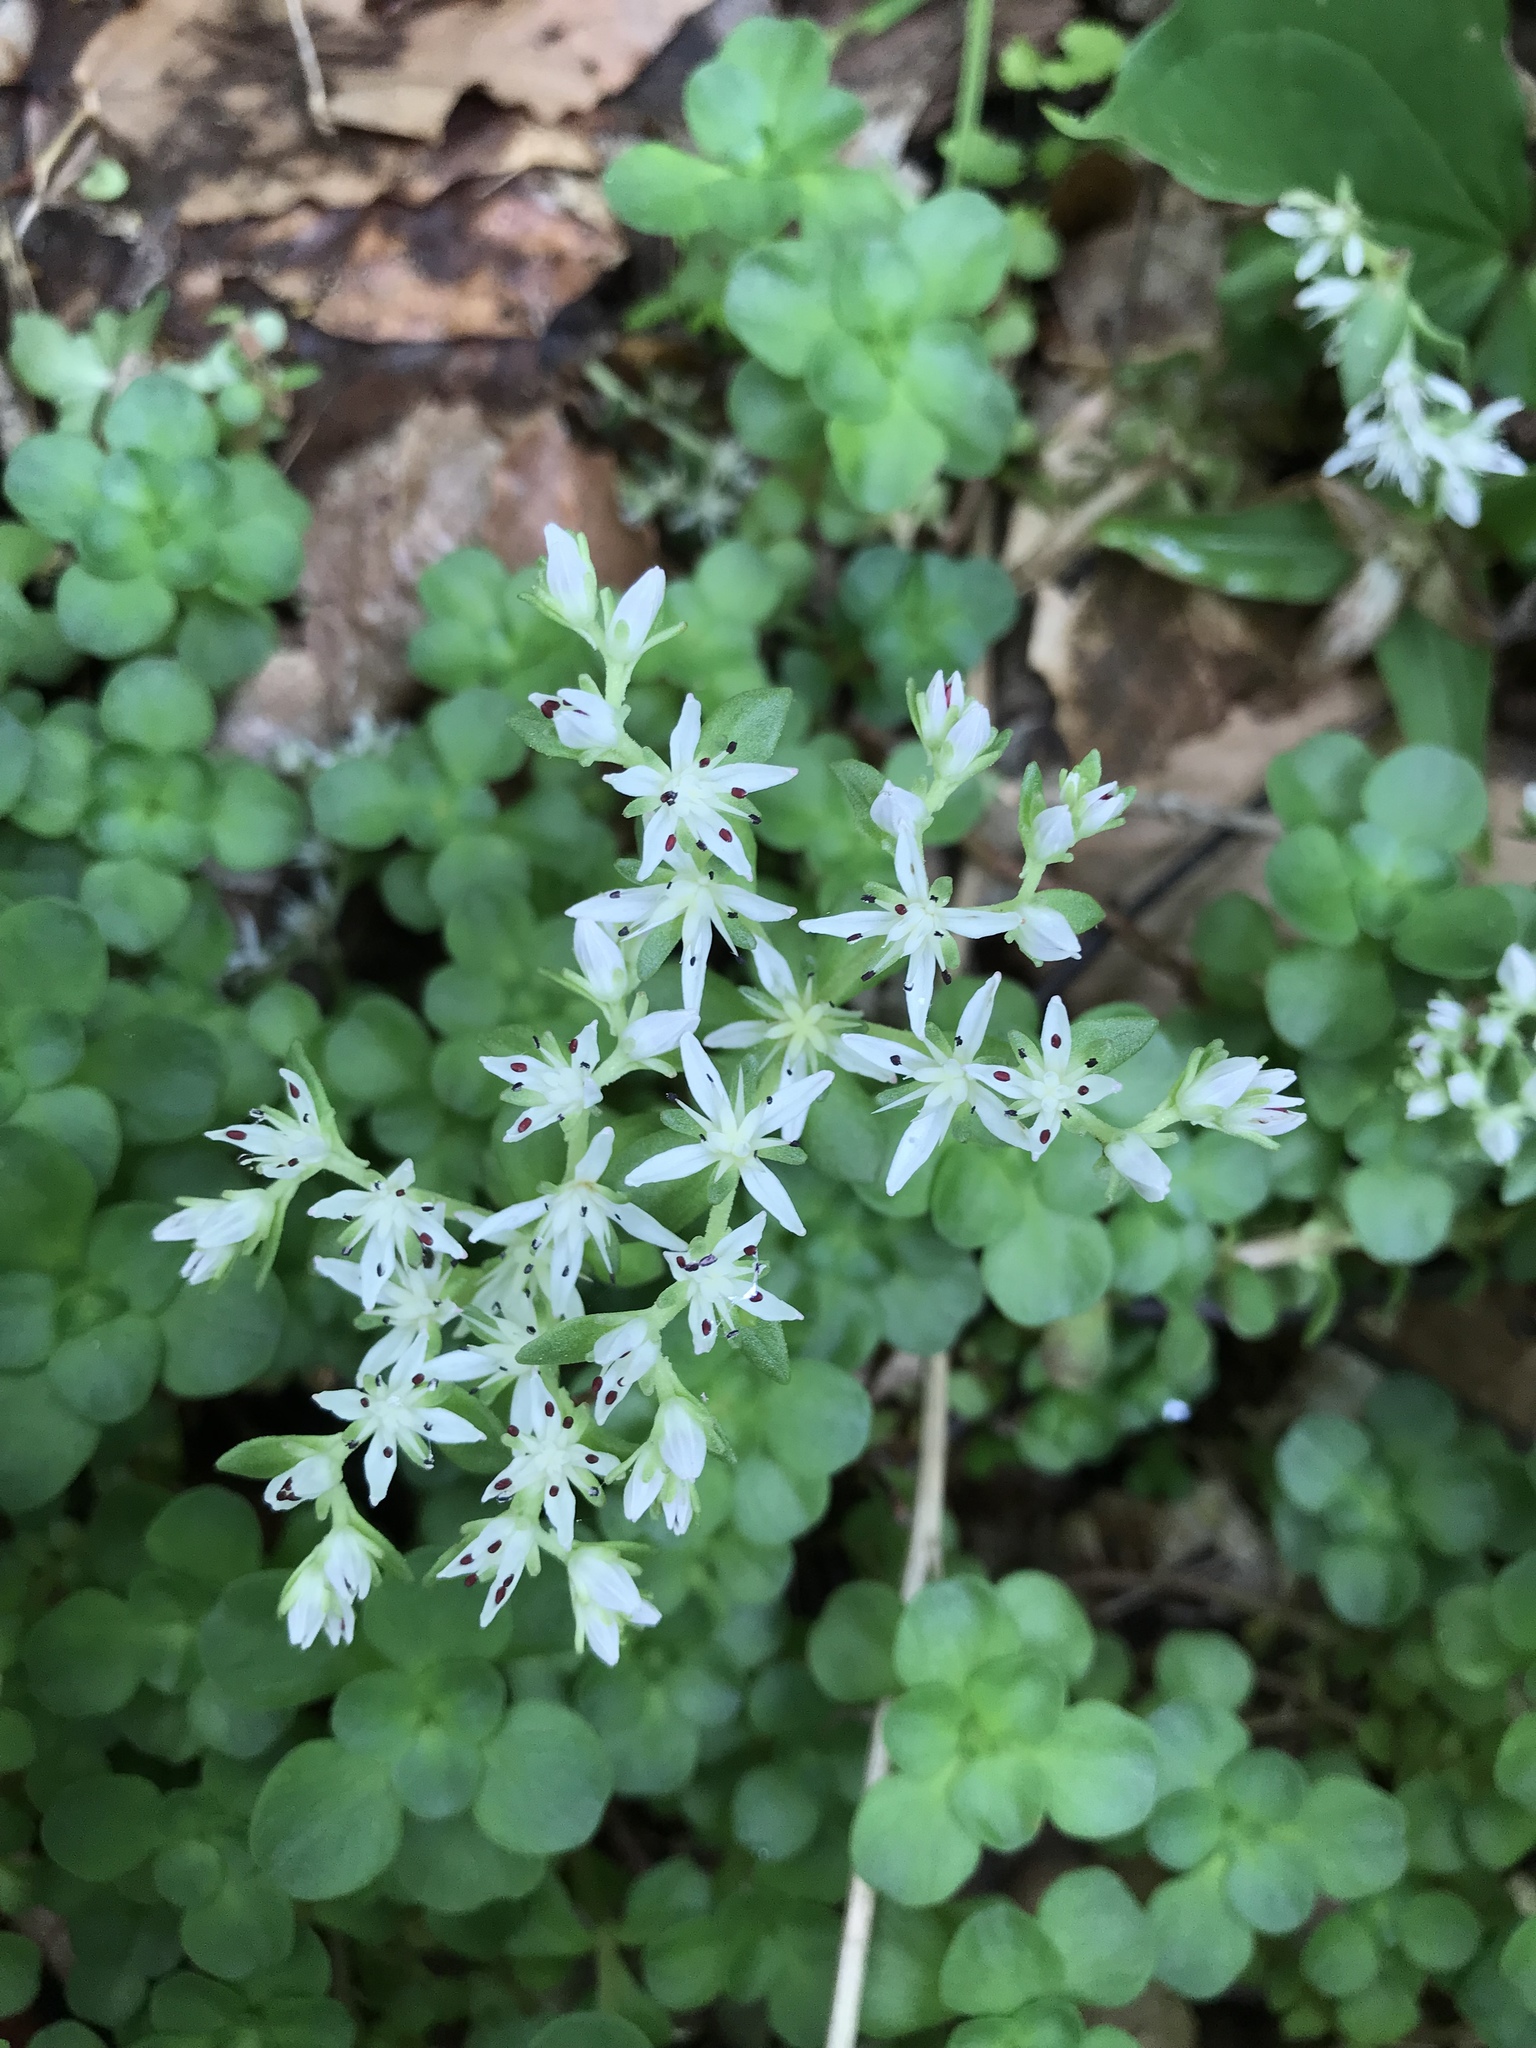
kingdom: Plantae
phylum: Tracheophyta
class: Magnoliopsida
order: Saxifragales
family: Crassulaceae
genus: Sedum
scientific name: Sedum ternatum
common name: Wild stonecrop
